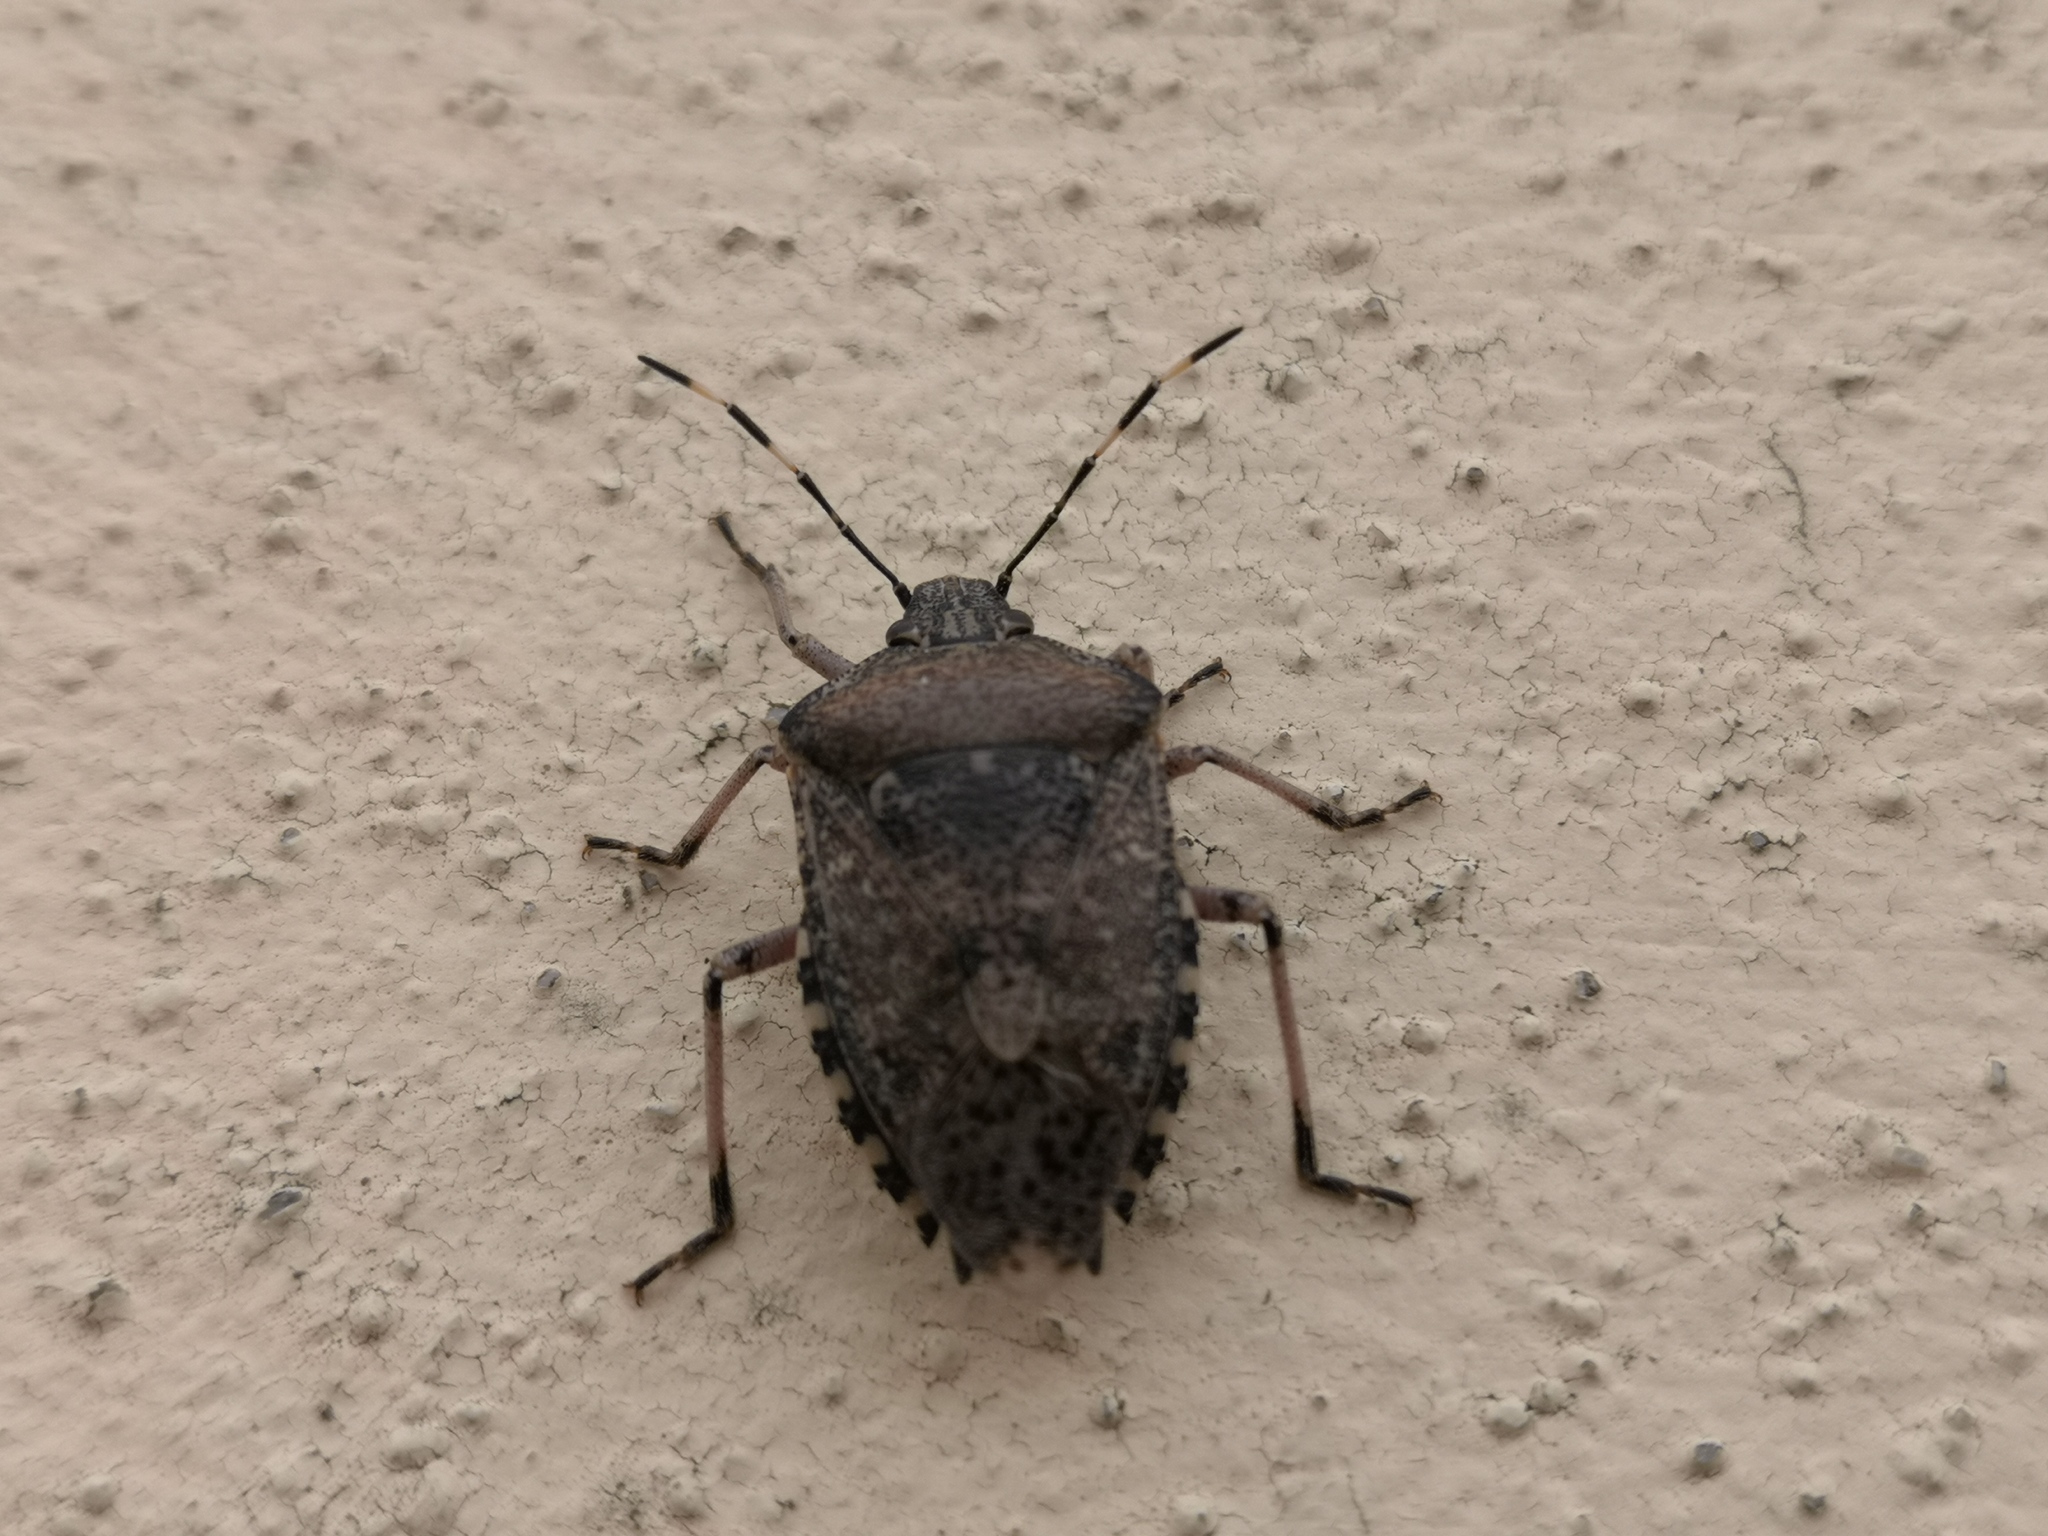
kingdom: Animalia
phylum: Arthropoda
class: Insecta
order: Hemiptera
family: Pentatomidae
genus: Rhaphigaster
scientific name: Rhaphigaster nebulosa
